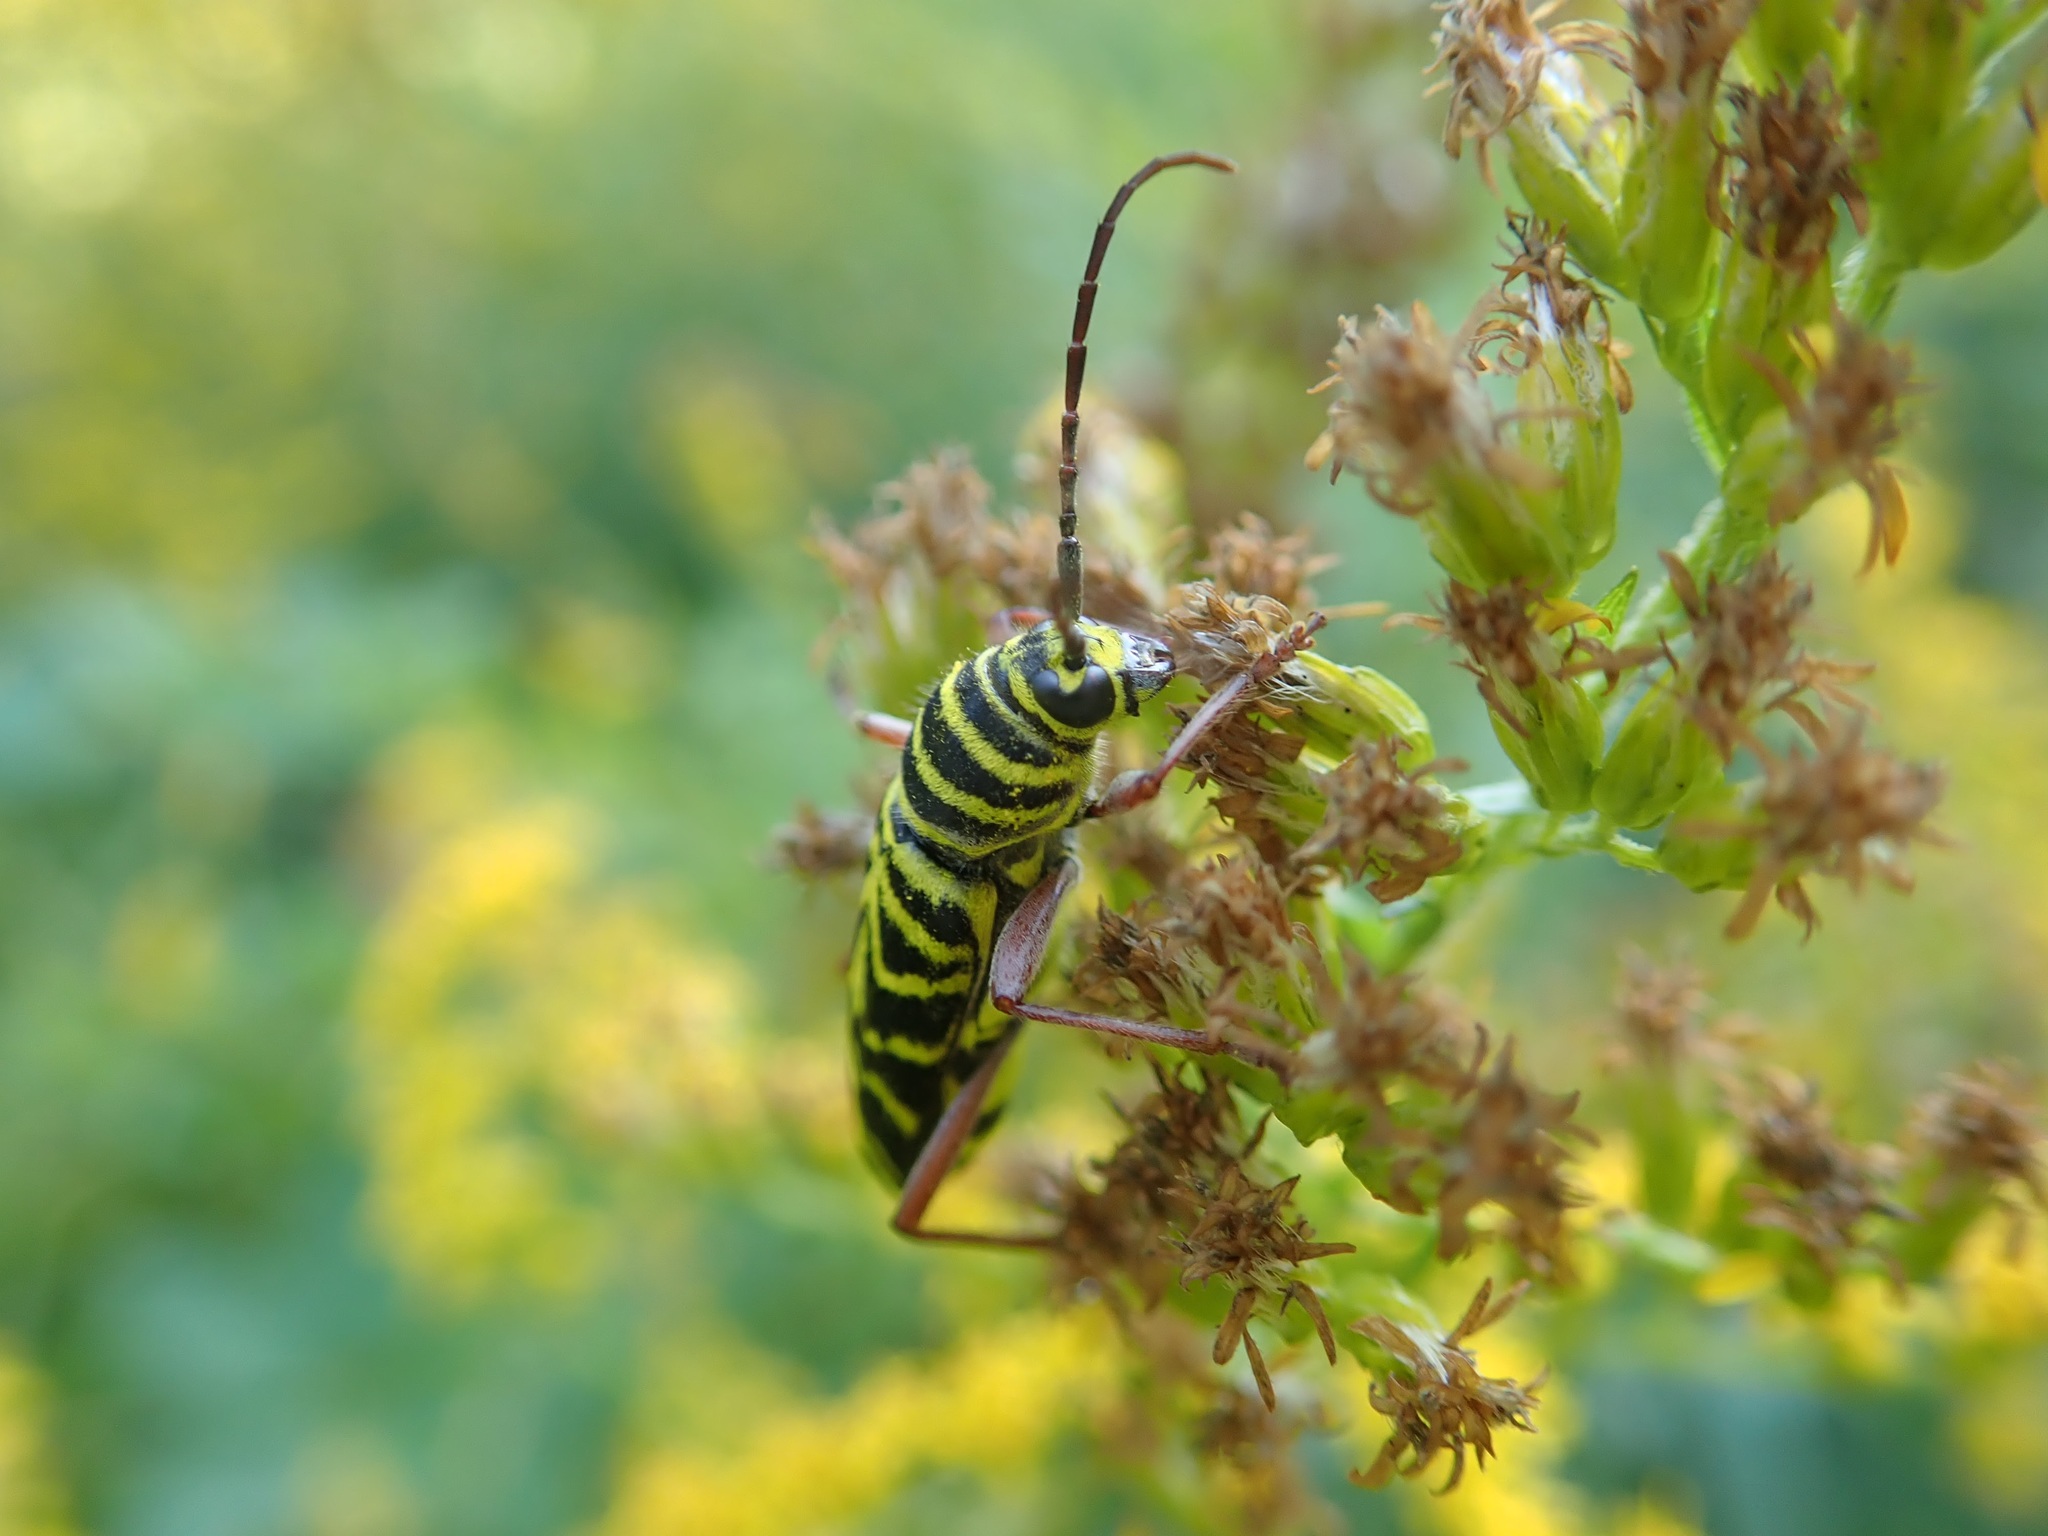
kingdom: Animalia
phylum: Arthropoda
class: Insecta
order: Coleoptera
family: Cerambycidae
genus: Megacyllene
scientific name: Megacyllene robiniae
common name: Locust borer
